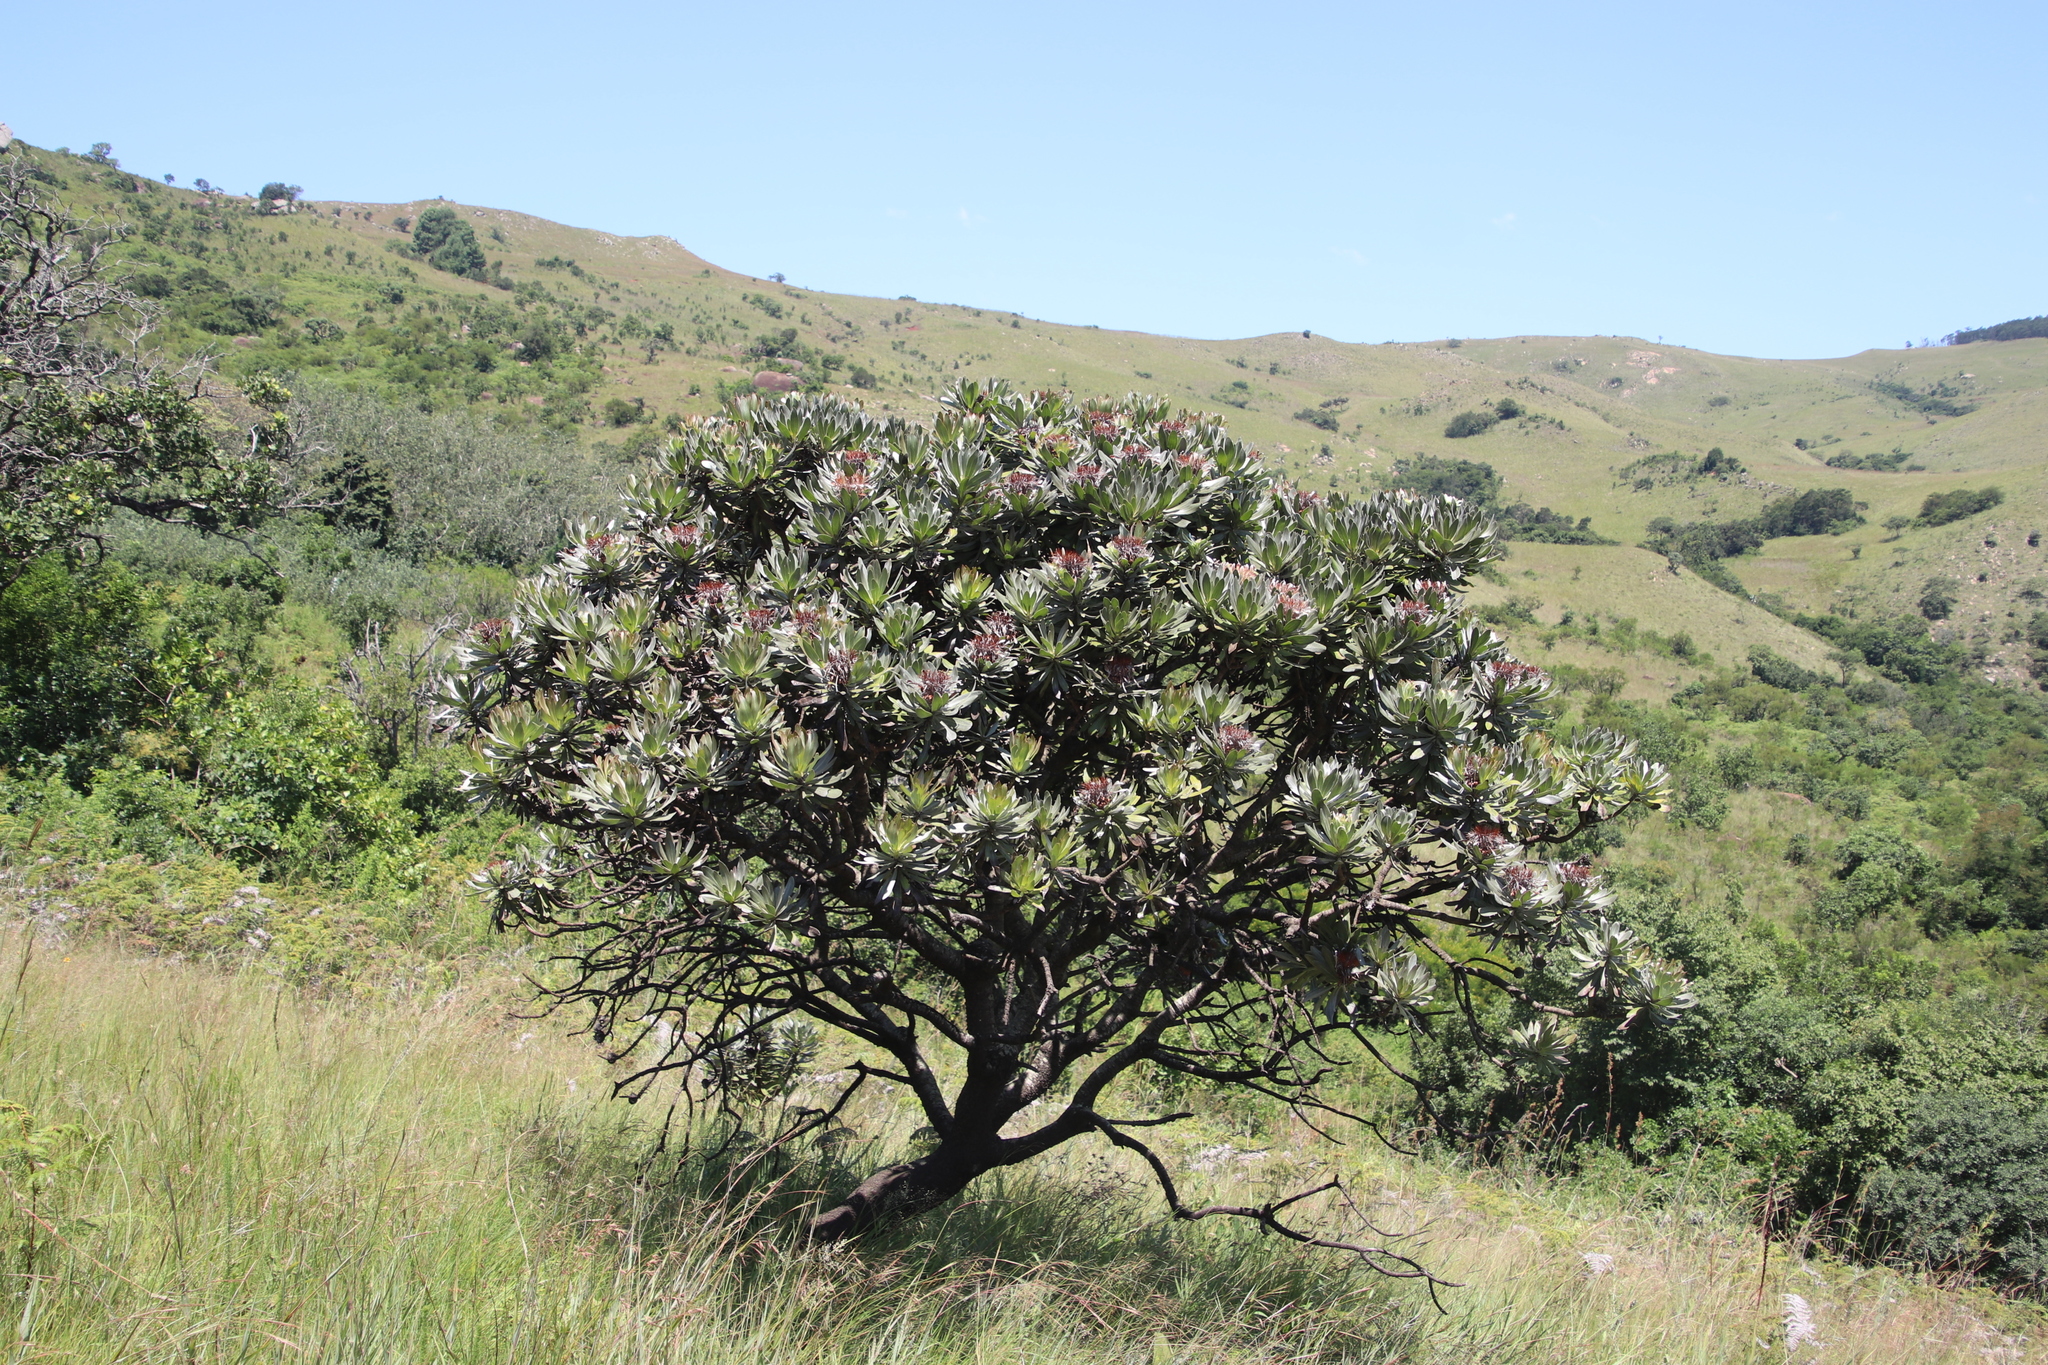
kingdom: Plantae
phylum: Tracheophyta
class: Magnoliopsida
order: Proteales
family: Proteaceae
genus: Protea
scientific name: Protea roupelliae
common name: Silver sugarbush
